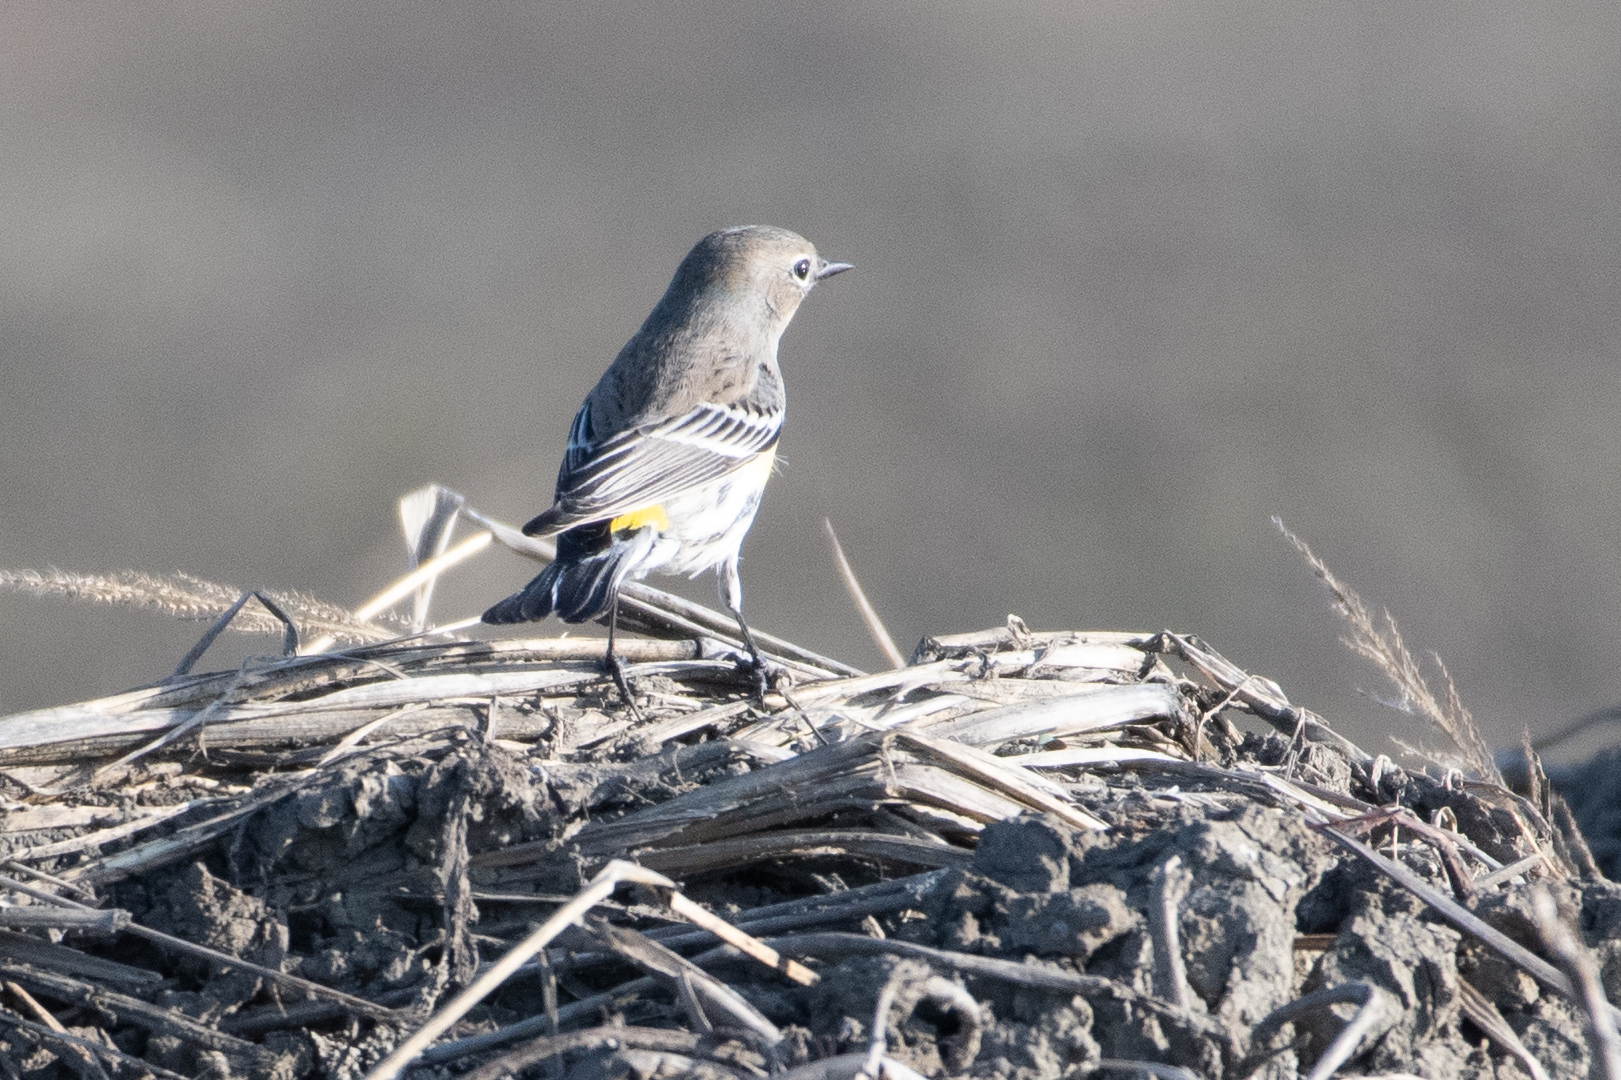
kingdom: Animalia
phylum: Chordata
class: Aves
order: Passeriformes
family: Parulidae
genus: Setophaga
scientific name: Setophaga coronata
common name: Myrtle warbler
